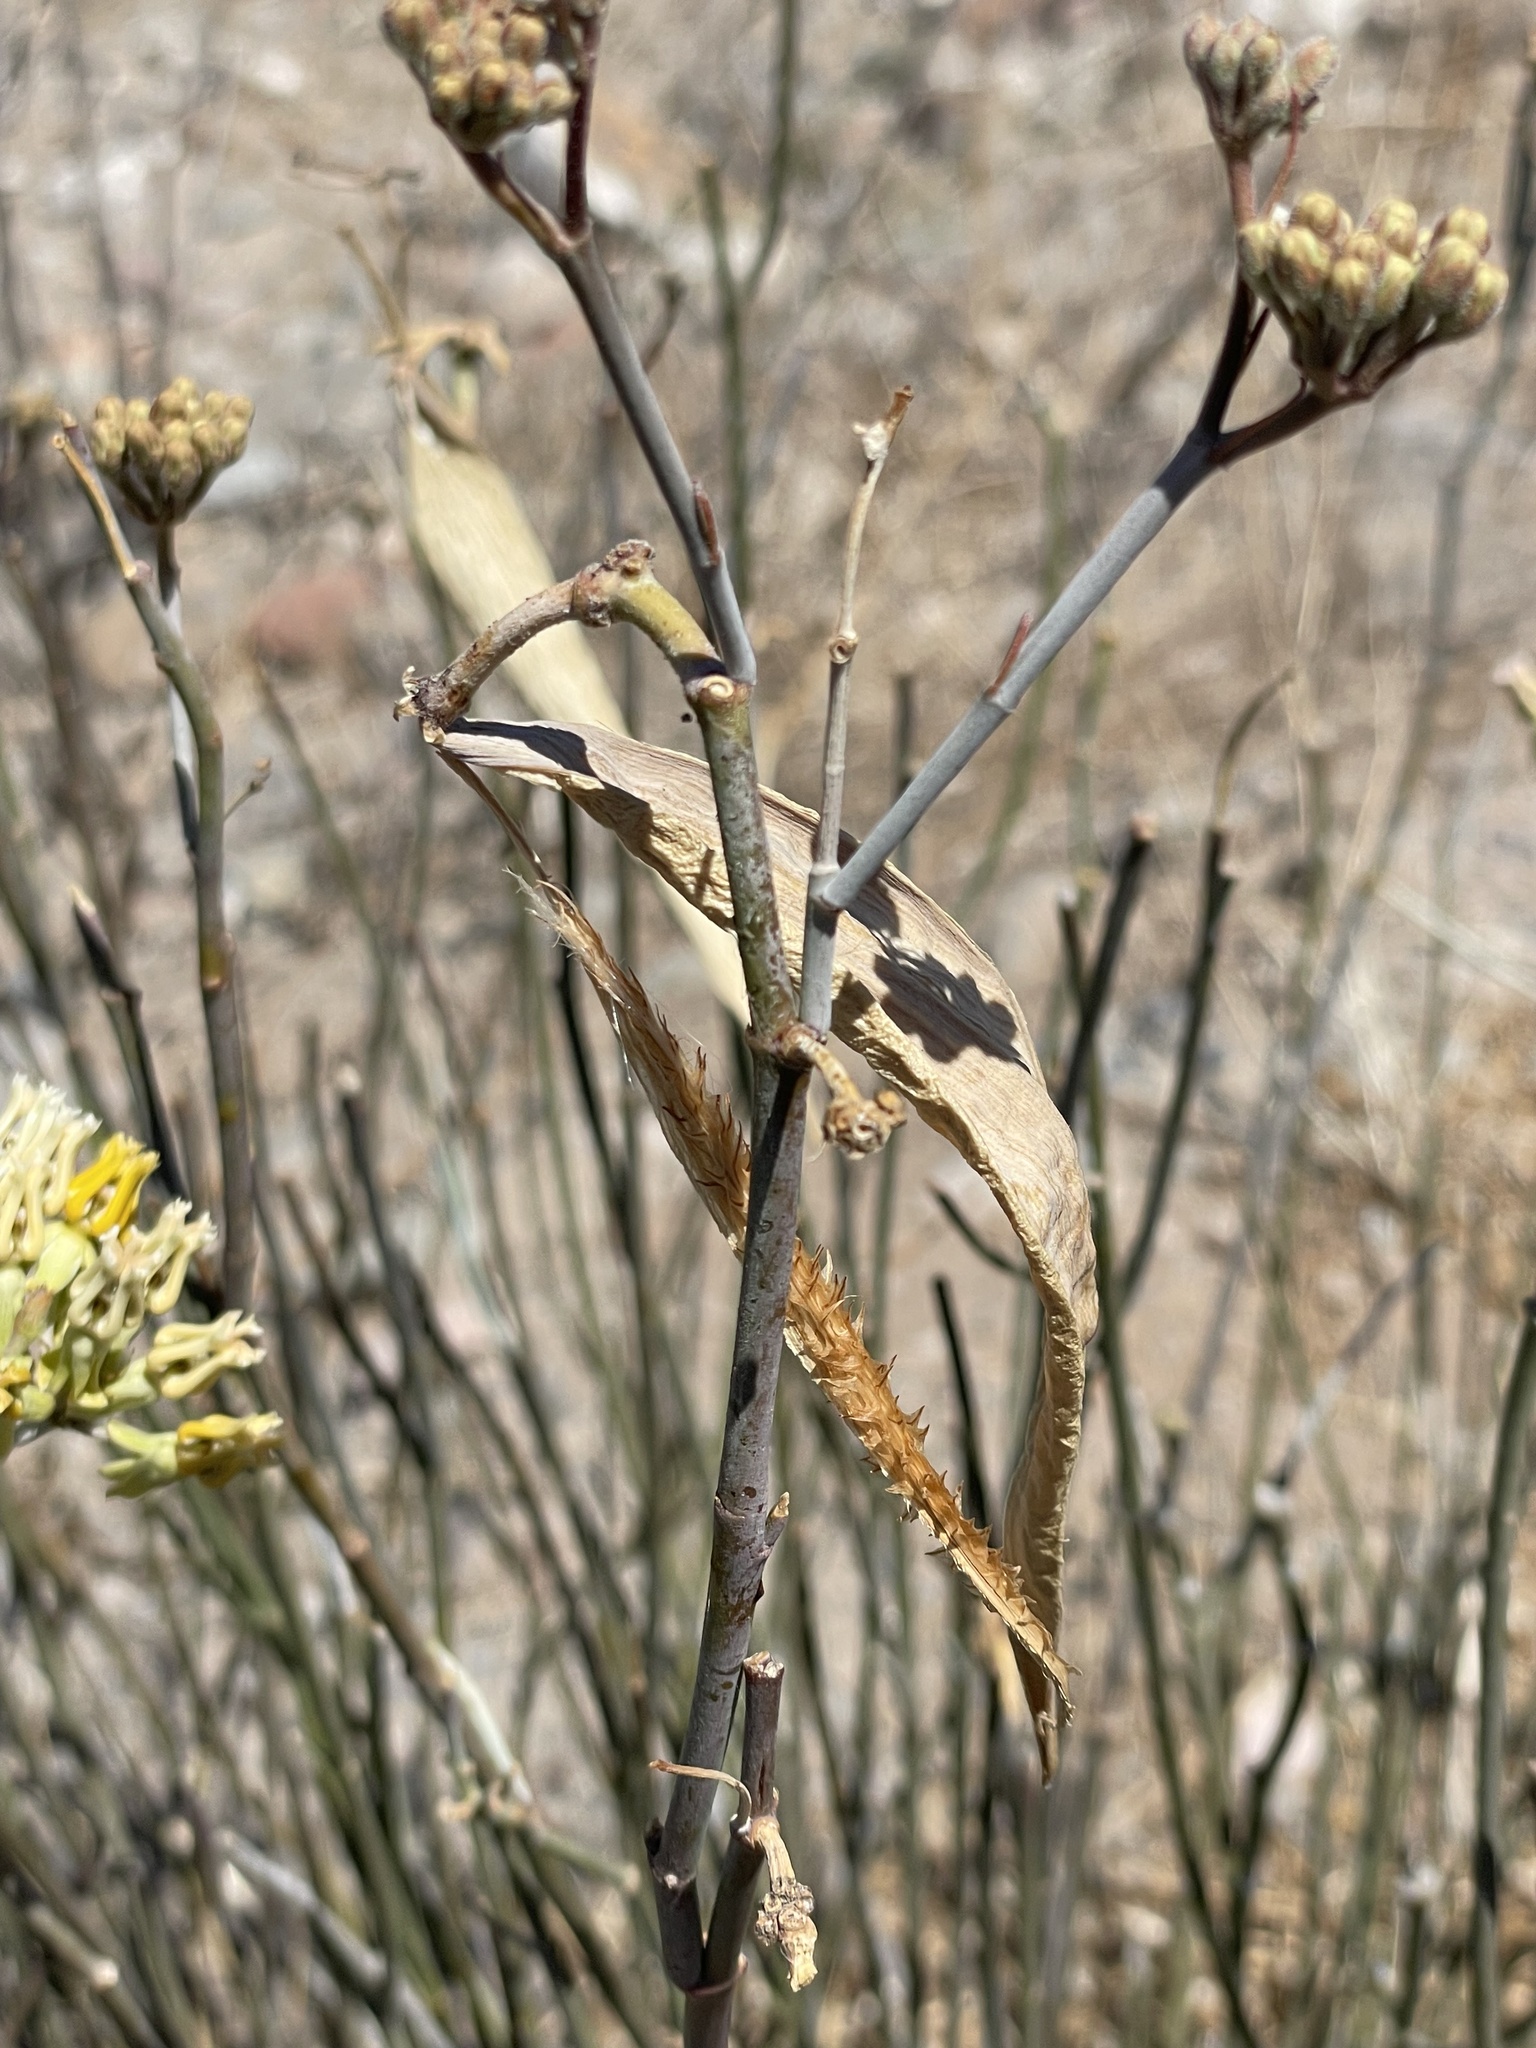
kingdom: Plantae
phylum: Tracheophyta
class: Magnoliopsida
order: Gentianales
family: Apocynaceae
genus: Asclepias
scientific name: Asclepias subulata
